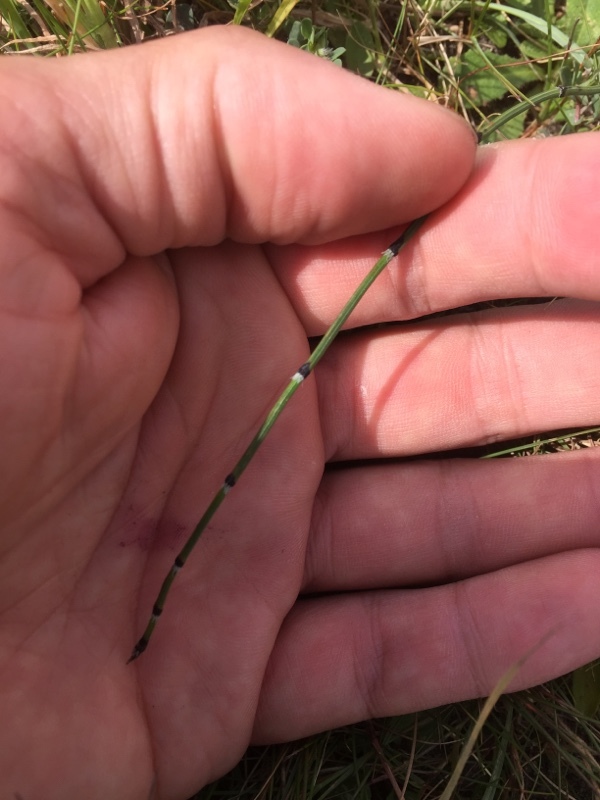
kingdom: Plantae
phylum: Tracheophyta
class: Polypodiopsida
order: Equisetales
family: Equisetaceae
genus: Equisetum
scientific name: Equisetum variegatum
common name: Variegated horsetail
